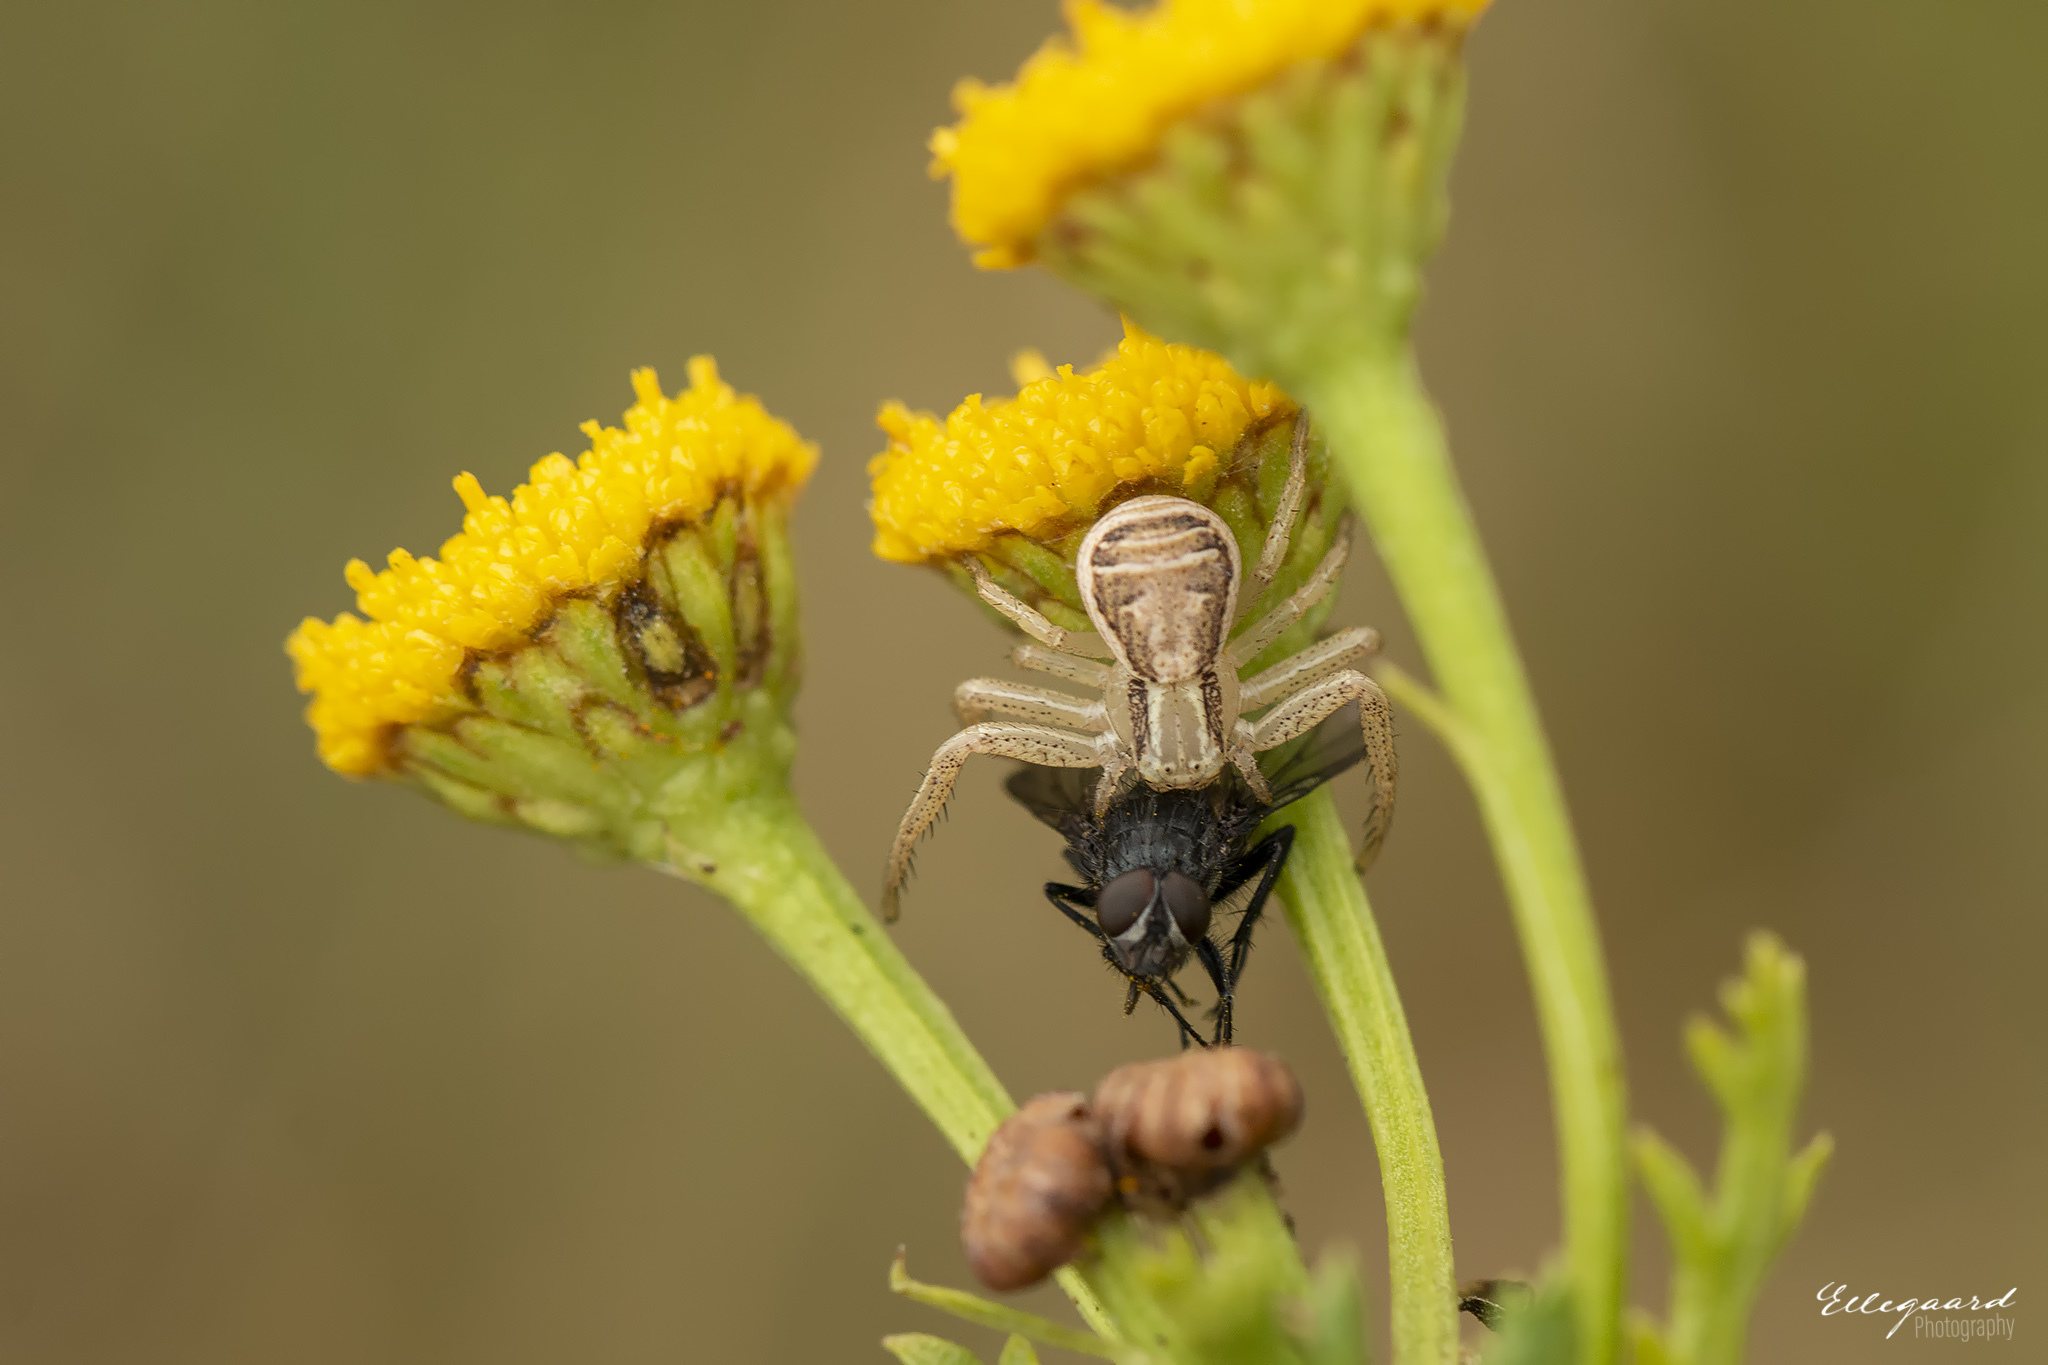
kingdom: Animalia
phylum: Arthropoda
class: Arachnida
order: Araneae
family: Thomisidae
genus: Xysticus
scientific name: Xysticus ulmi
